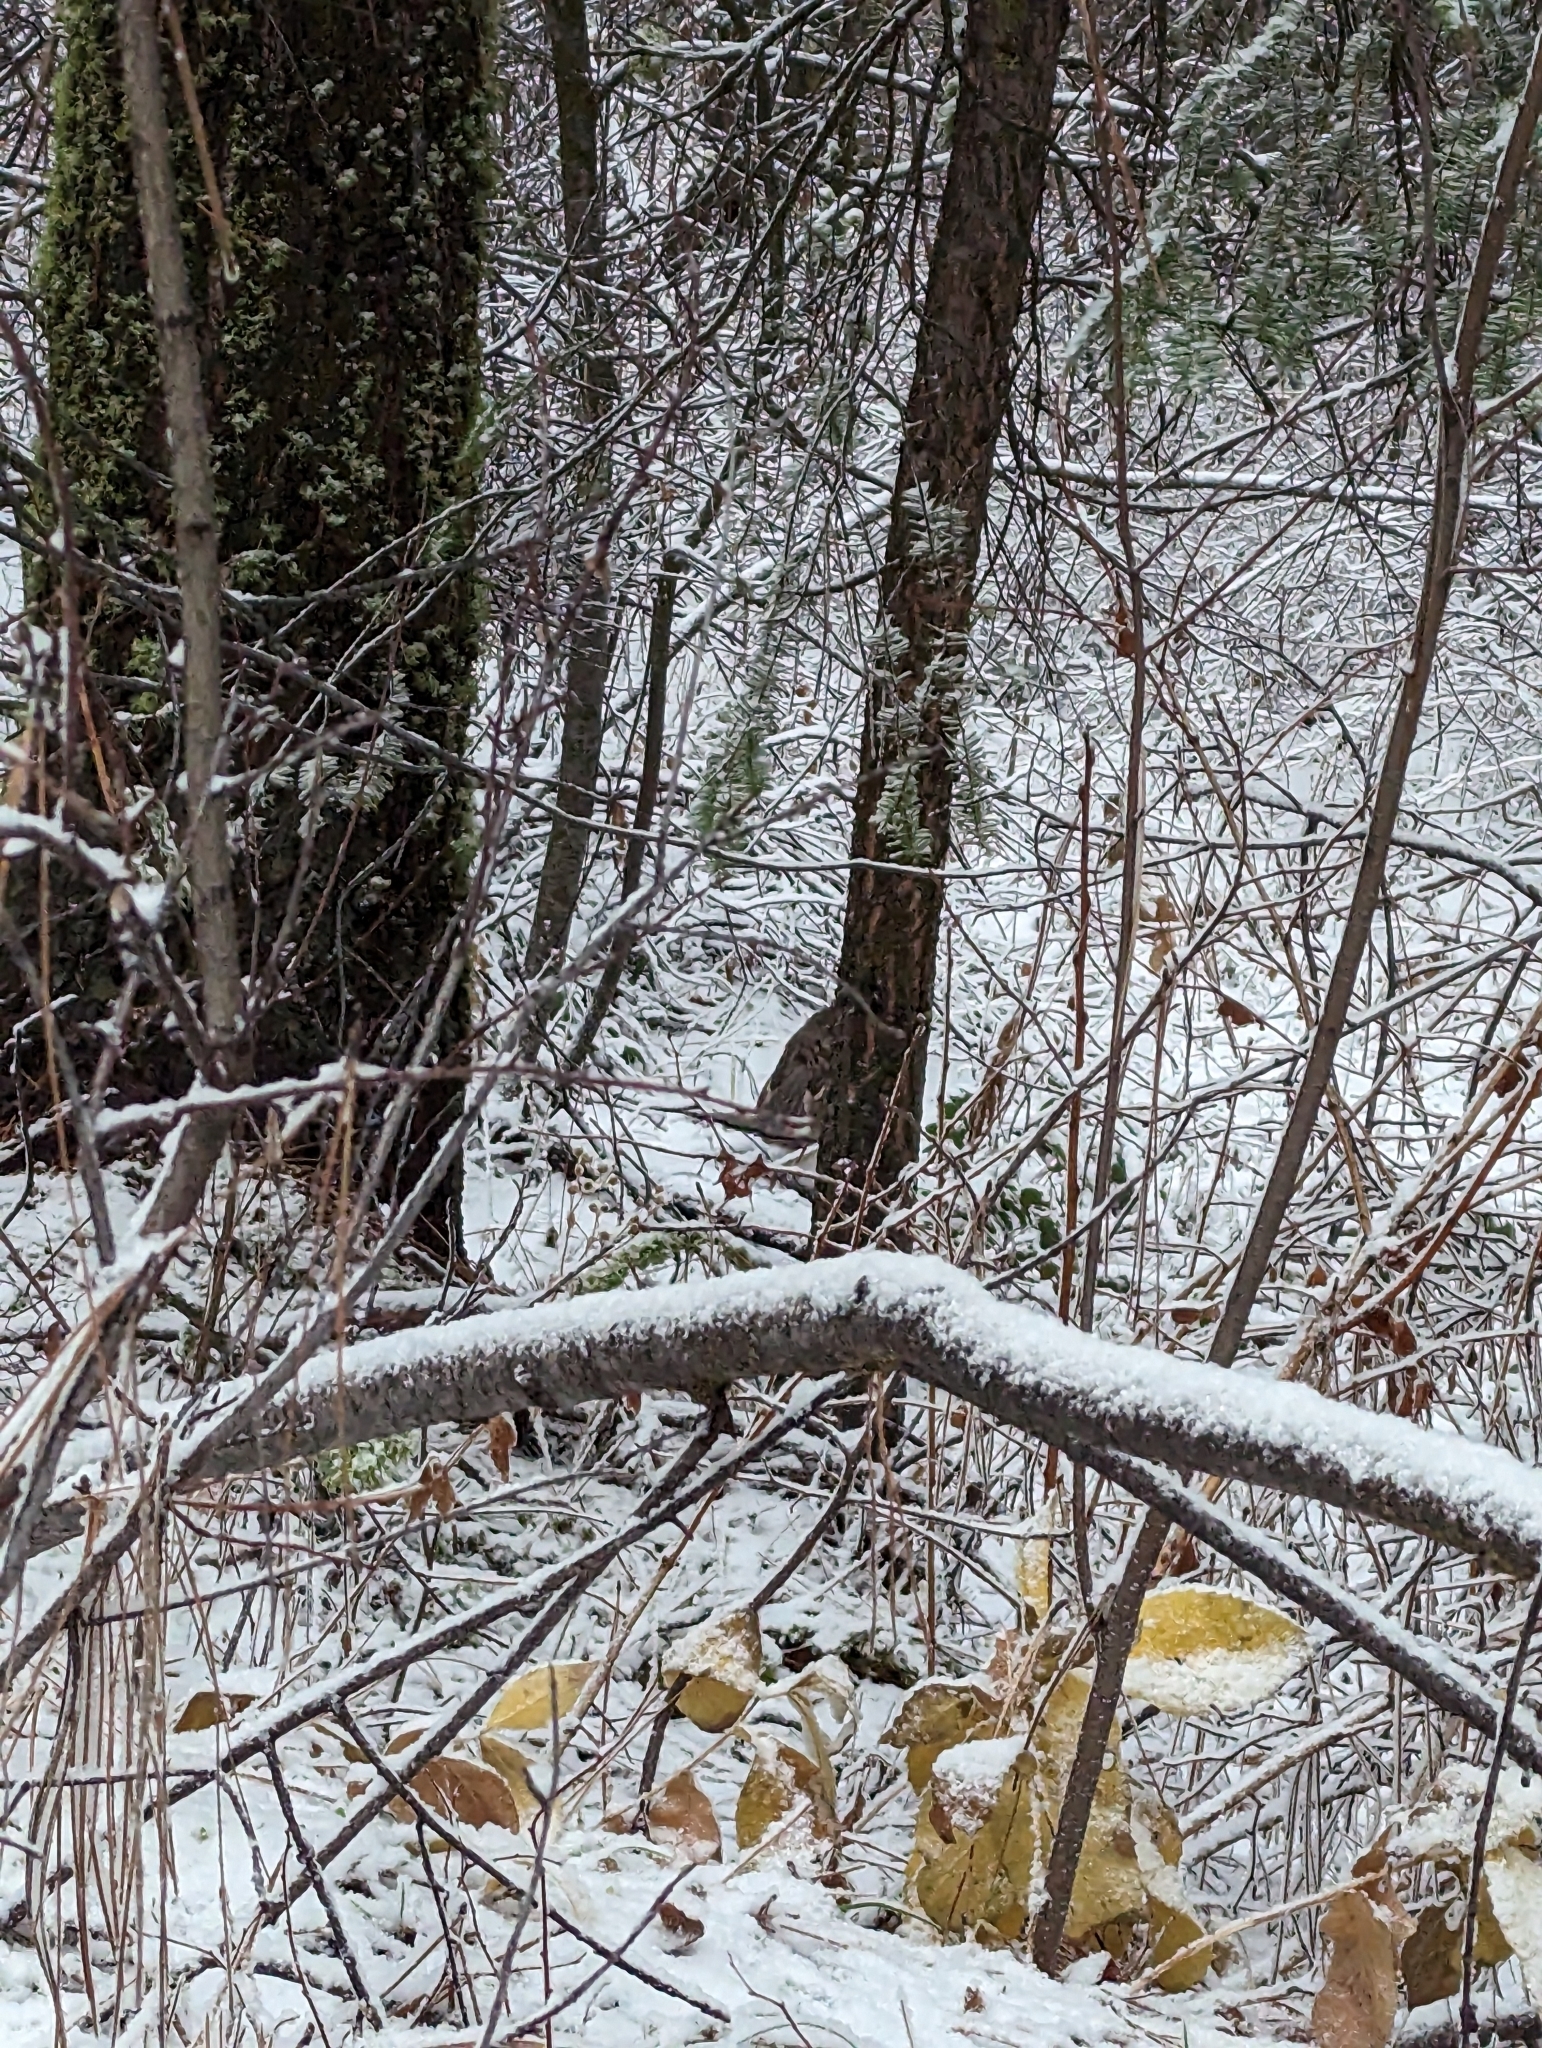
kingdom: Animalia
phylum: Chordata
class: Aves
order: Galliformes
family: Phasianidae
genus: Bonasa
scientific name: Bonasa umbellus
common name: Ruffed grouse
